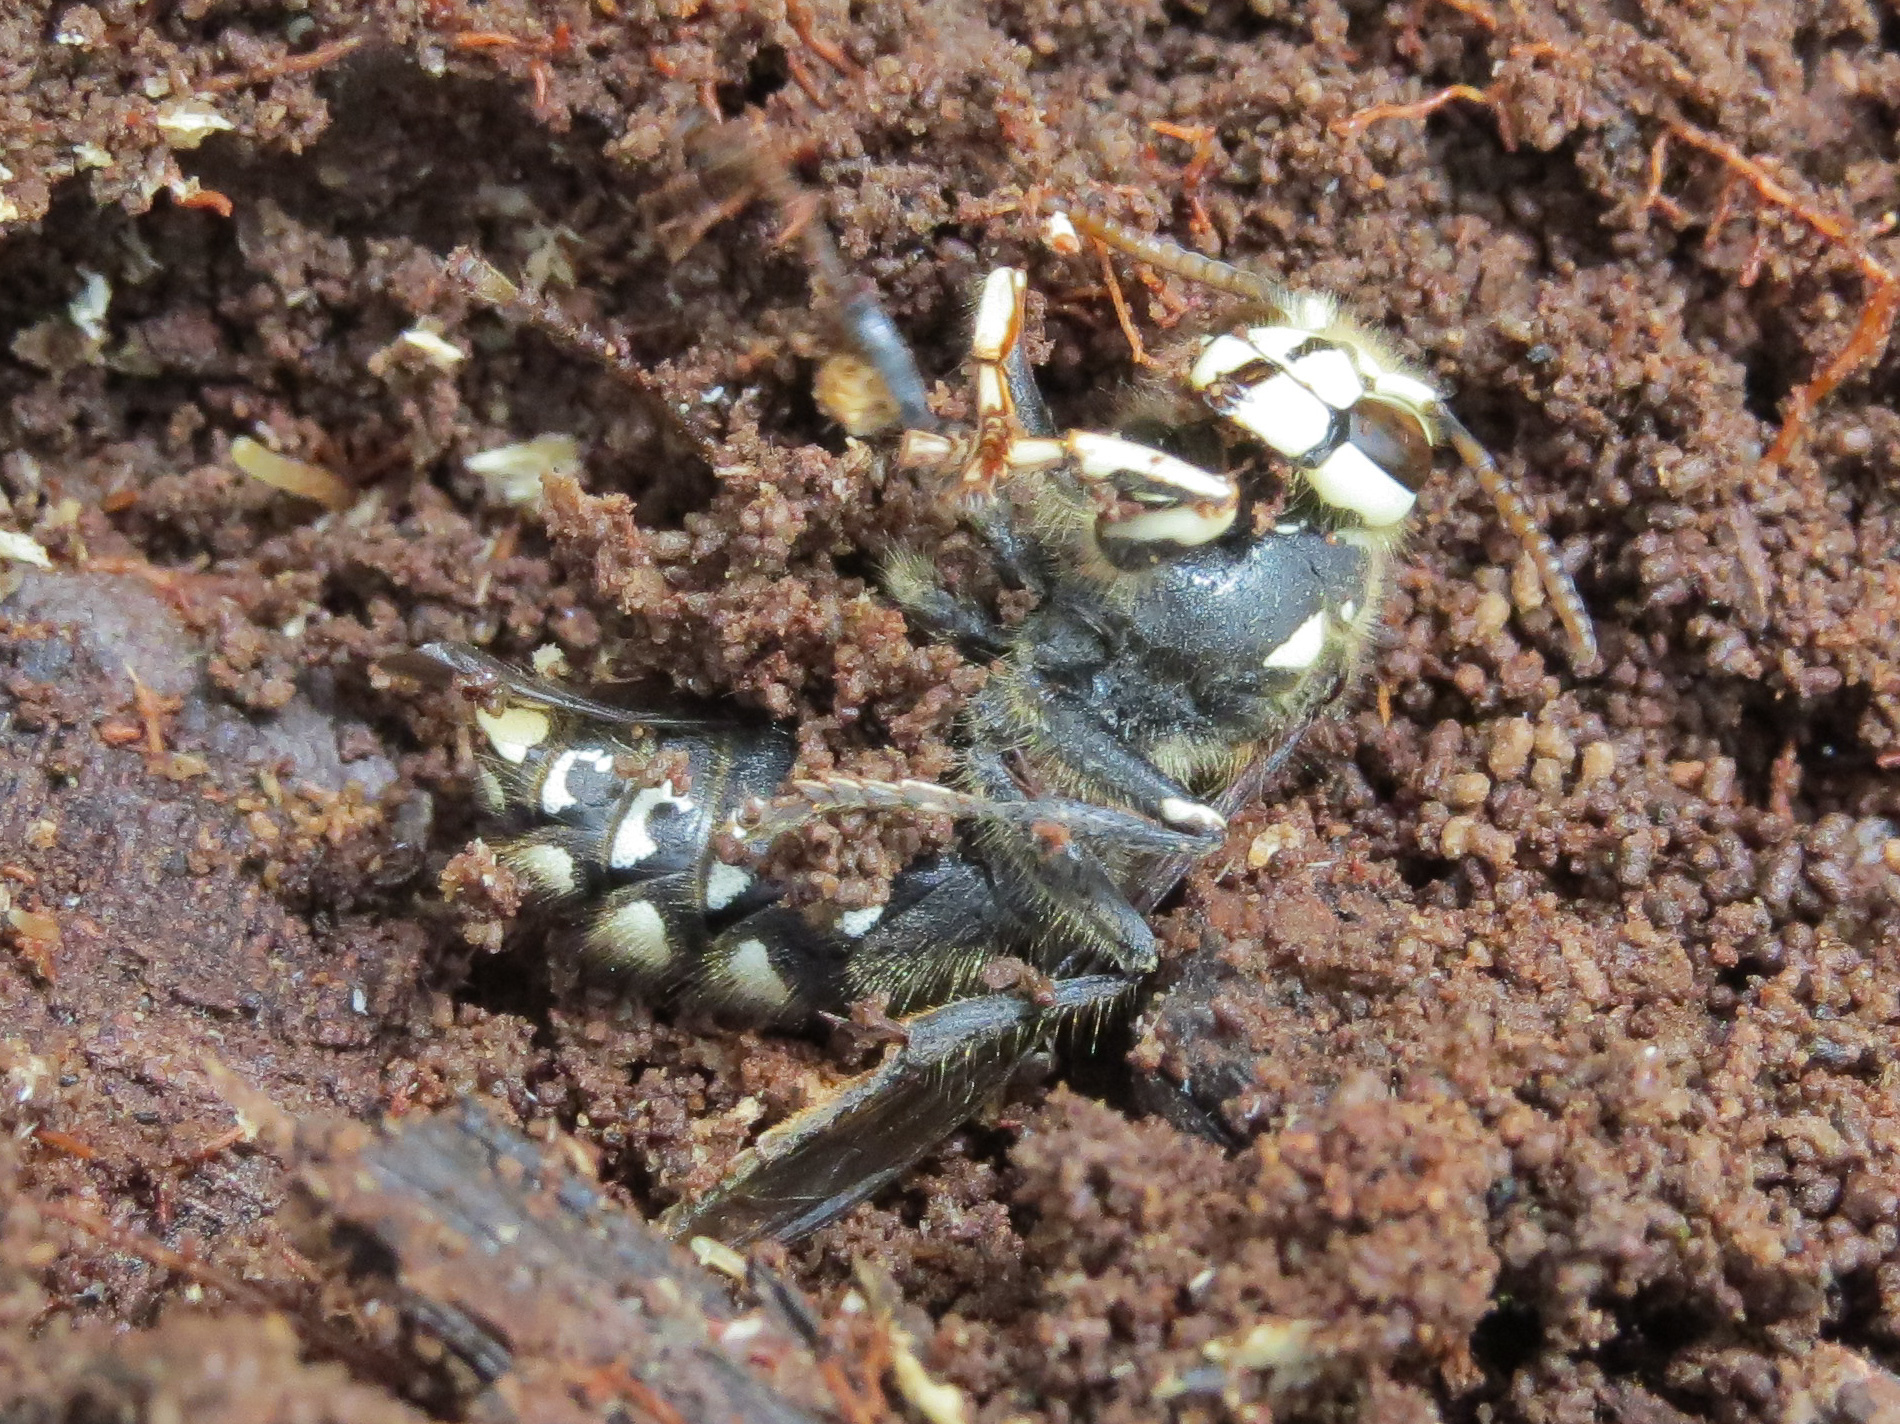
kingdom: Animalia
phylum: Arthropoda
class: Insecta
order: Hymenoptera
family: Vespidae
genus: Dolichovespula
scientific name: Dolichovespula maculata
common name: Bald-faced hornet
